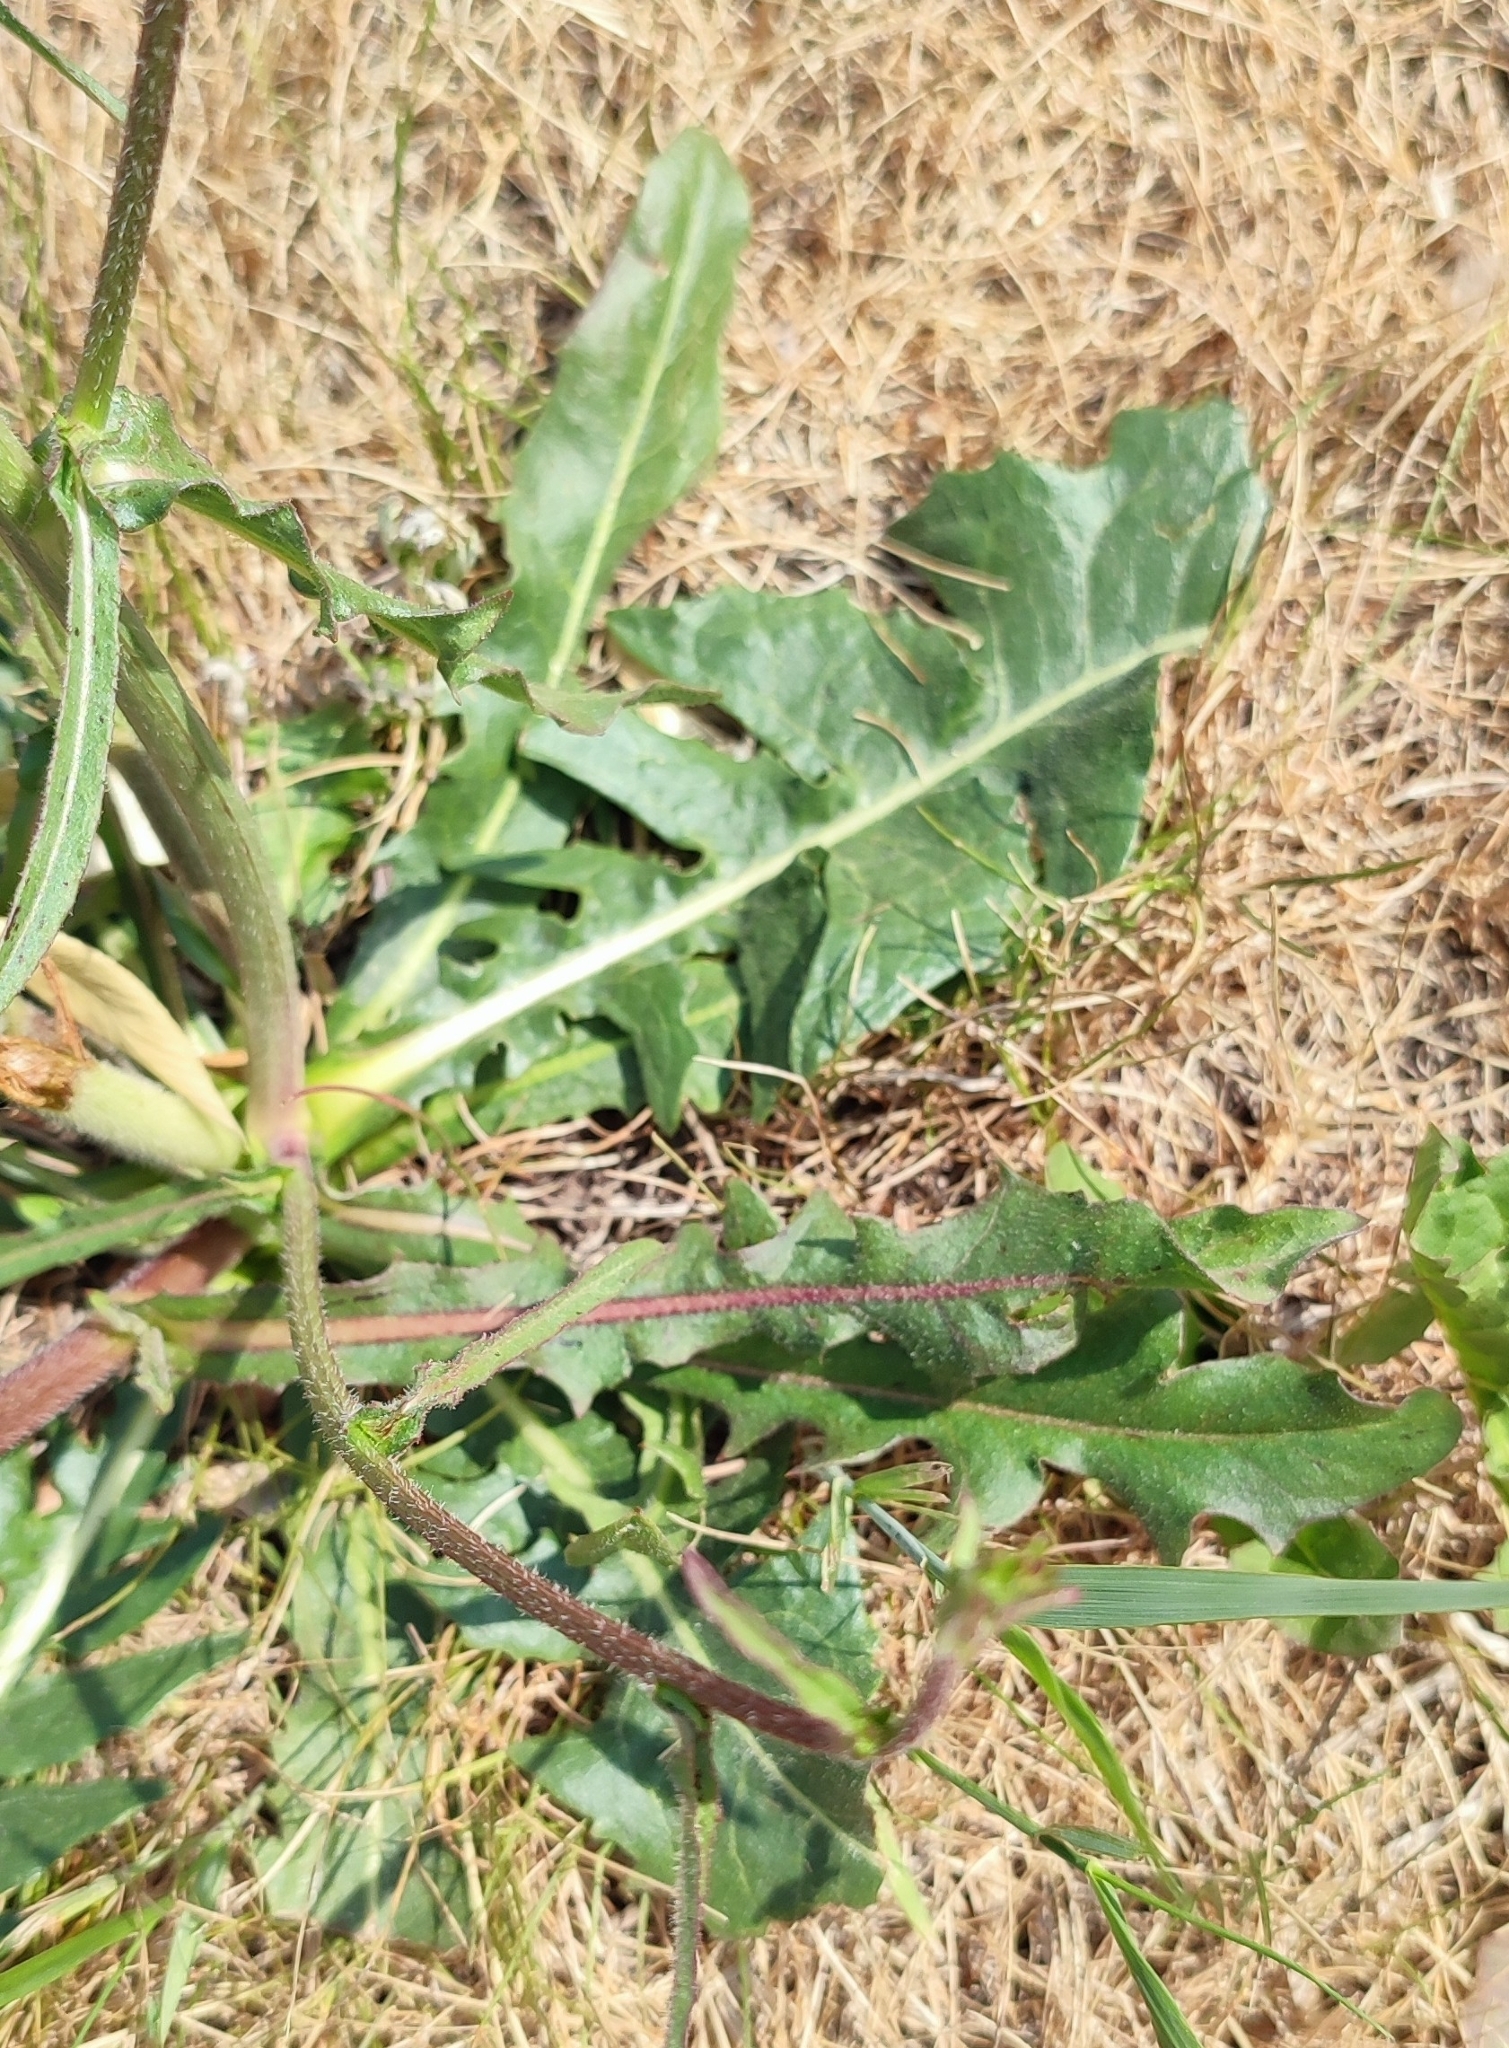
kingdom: Plantae
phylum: Tracheophyta
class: Magnoliopsida
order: Asterales
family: Asteraceae
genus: Cichorium
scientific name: Cichorium intybus
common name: Chicory
